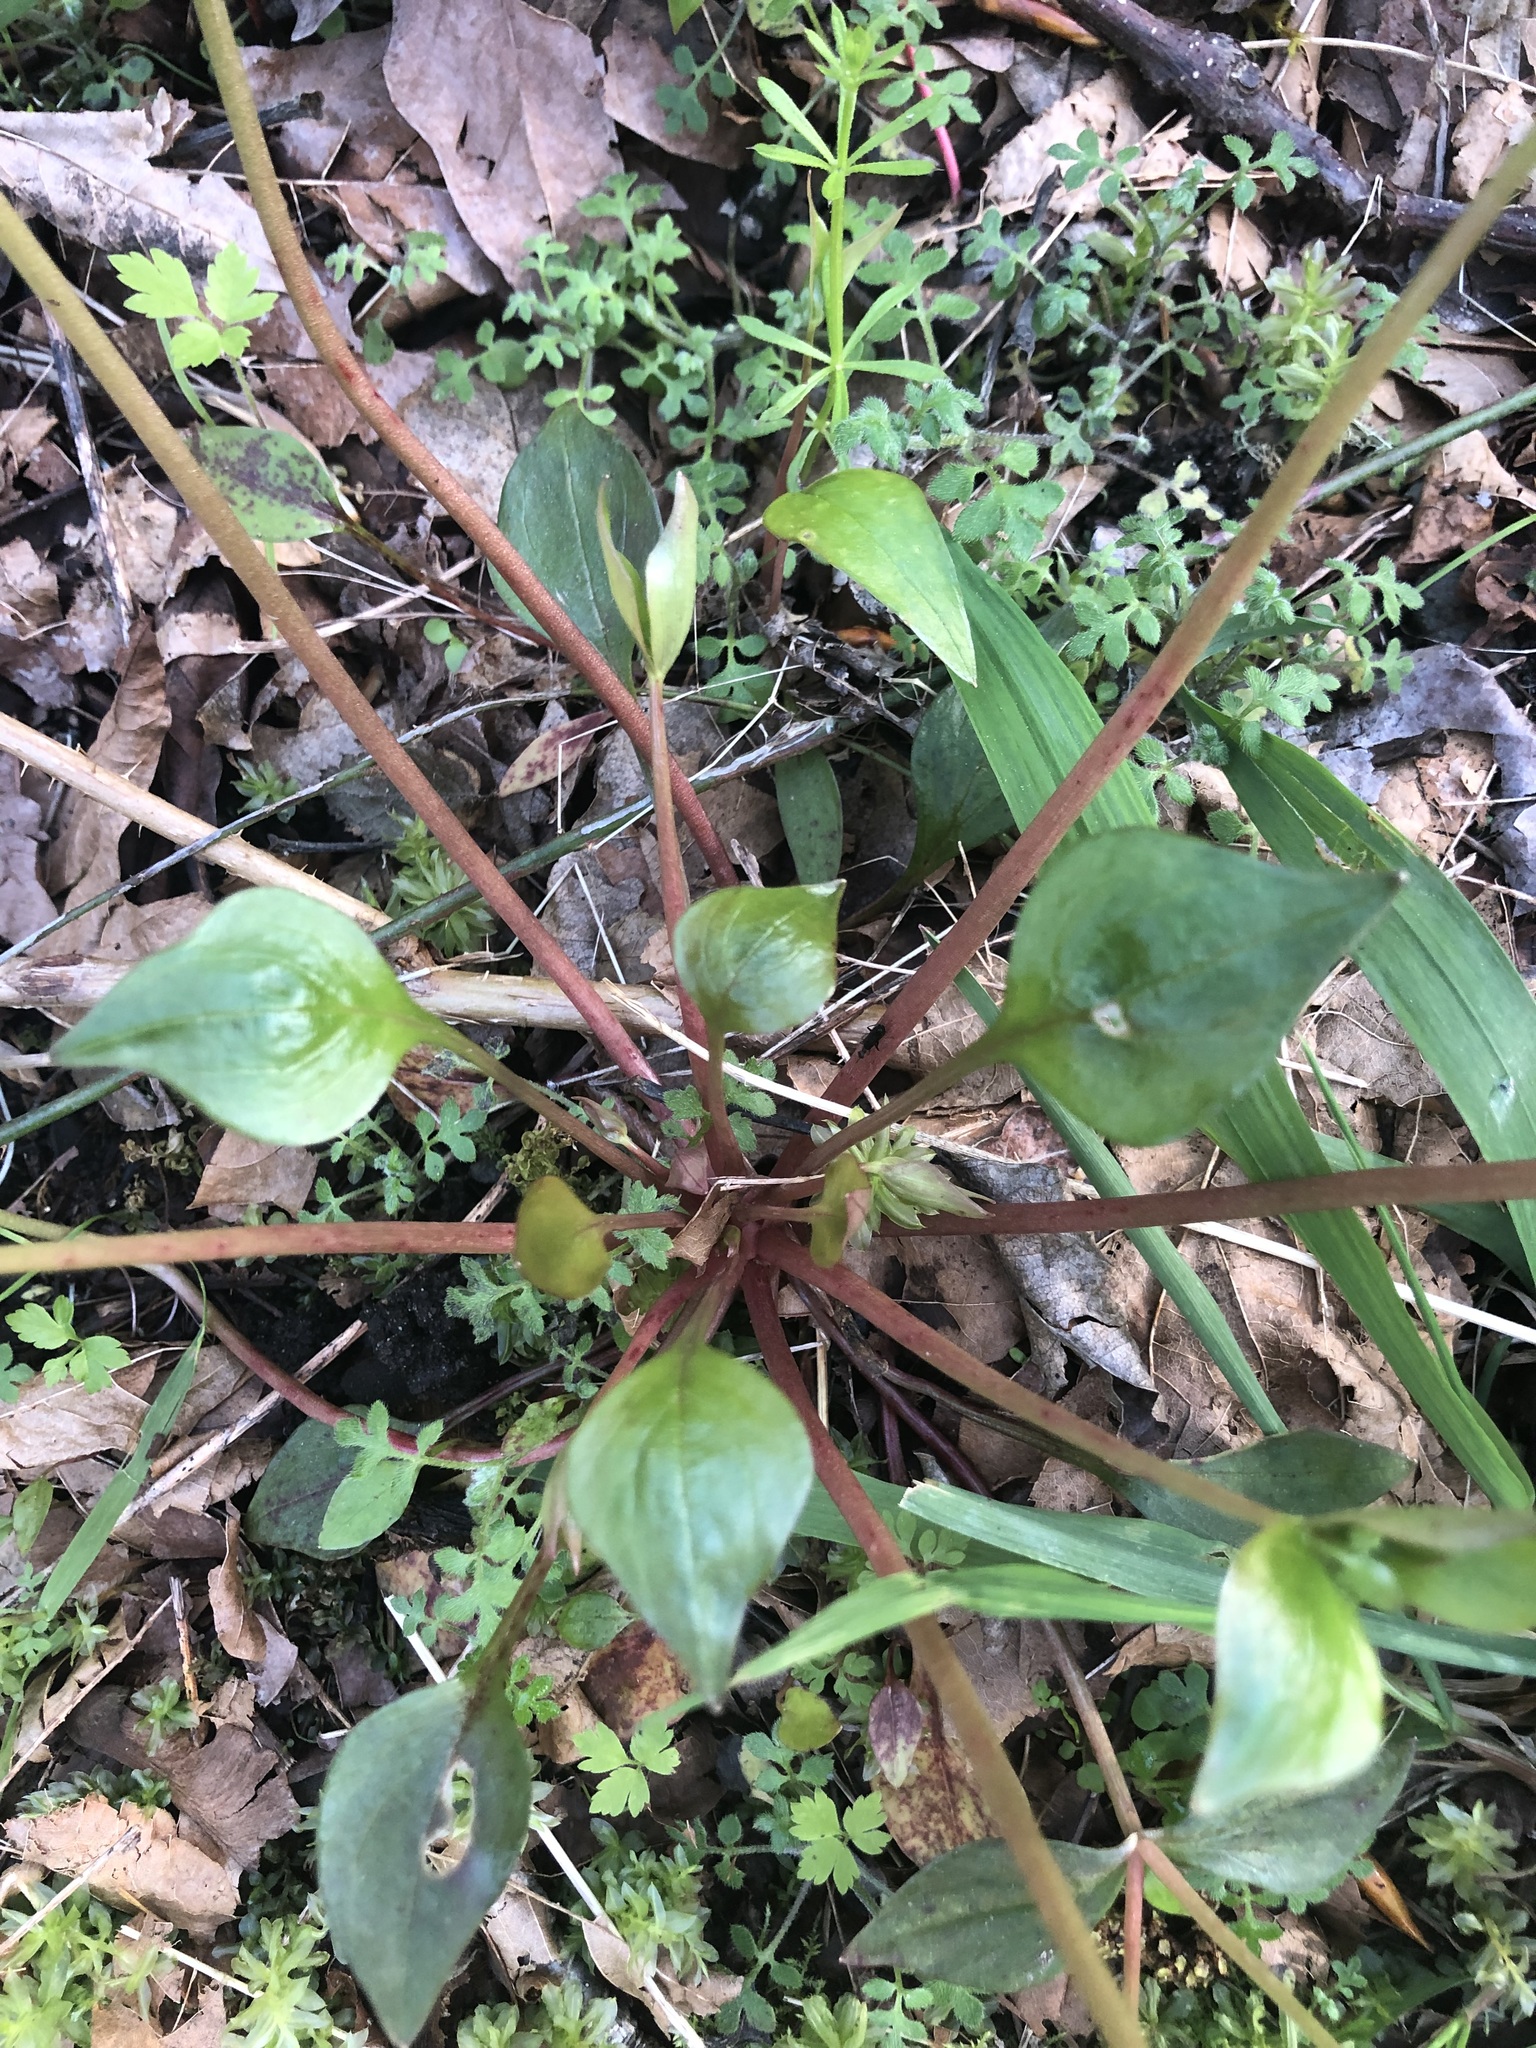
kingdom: Plantae
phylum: Tracheophyta
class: Magnoliopsida
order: Caryophyllales
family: Montiaceae
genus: Claytonia
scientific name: Claytonia sibirica
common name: Pink purslane
